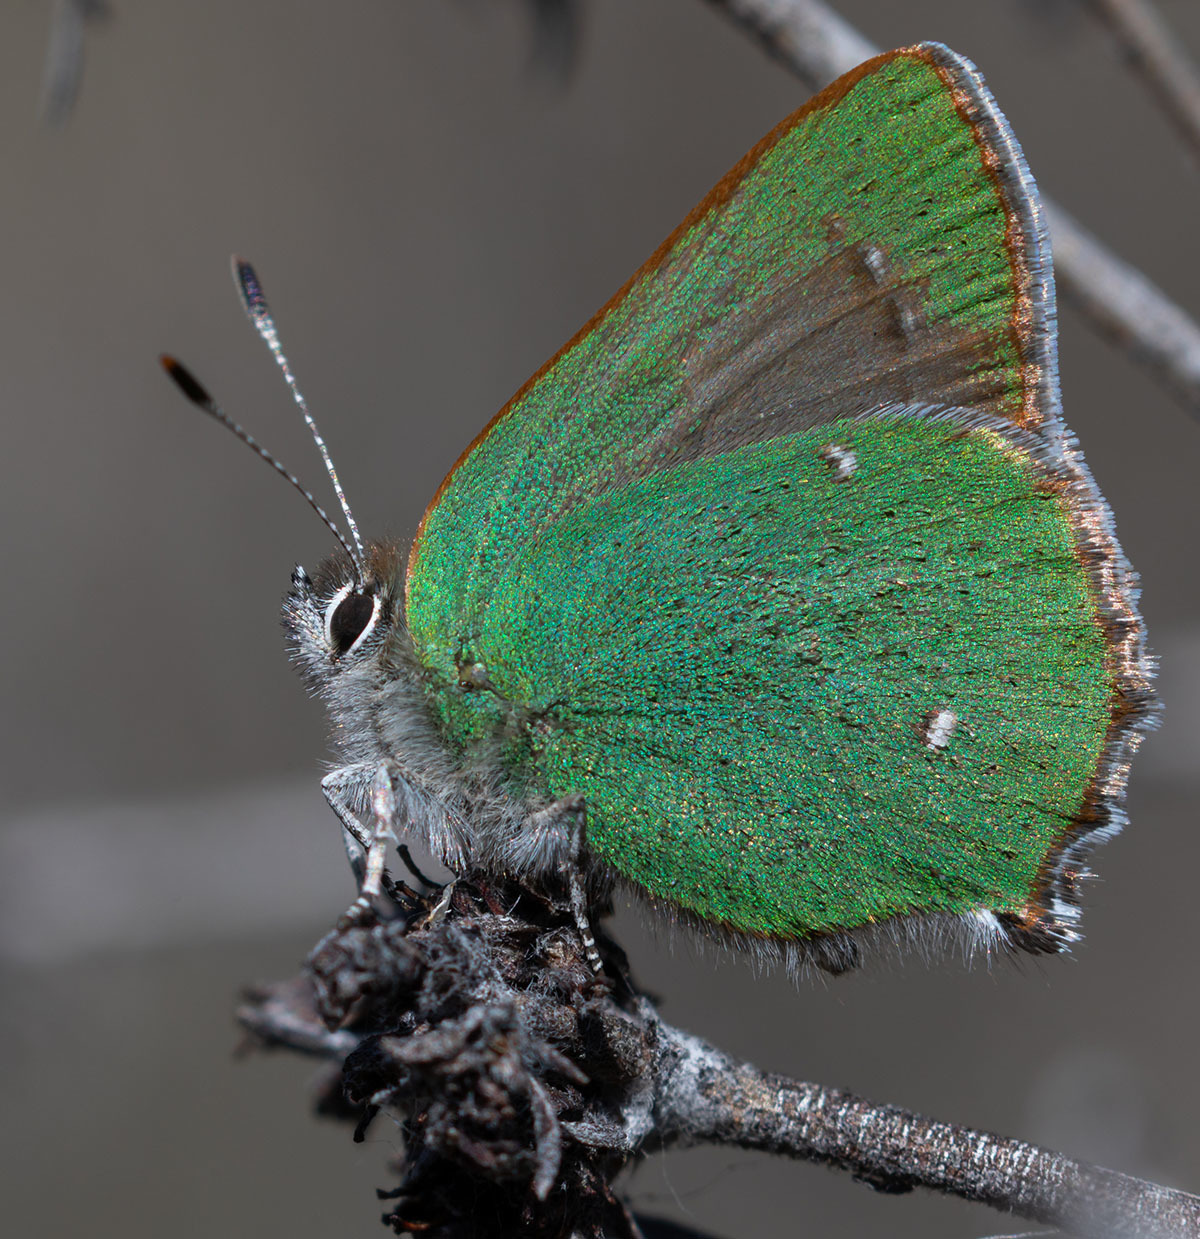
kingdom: Animalia
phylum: Arthropoda
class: Insecta
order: Lepidoptera
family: Lycaenidae
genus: Callophrys
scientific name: Callophrys dumetorum
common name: Bramble hairstreak
